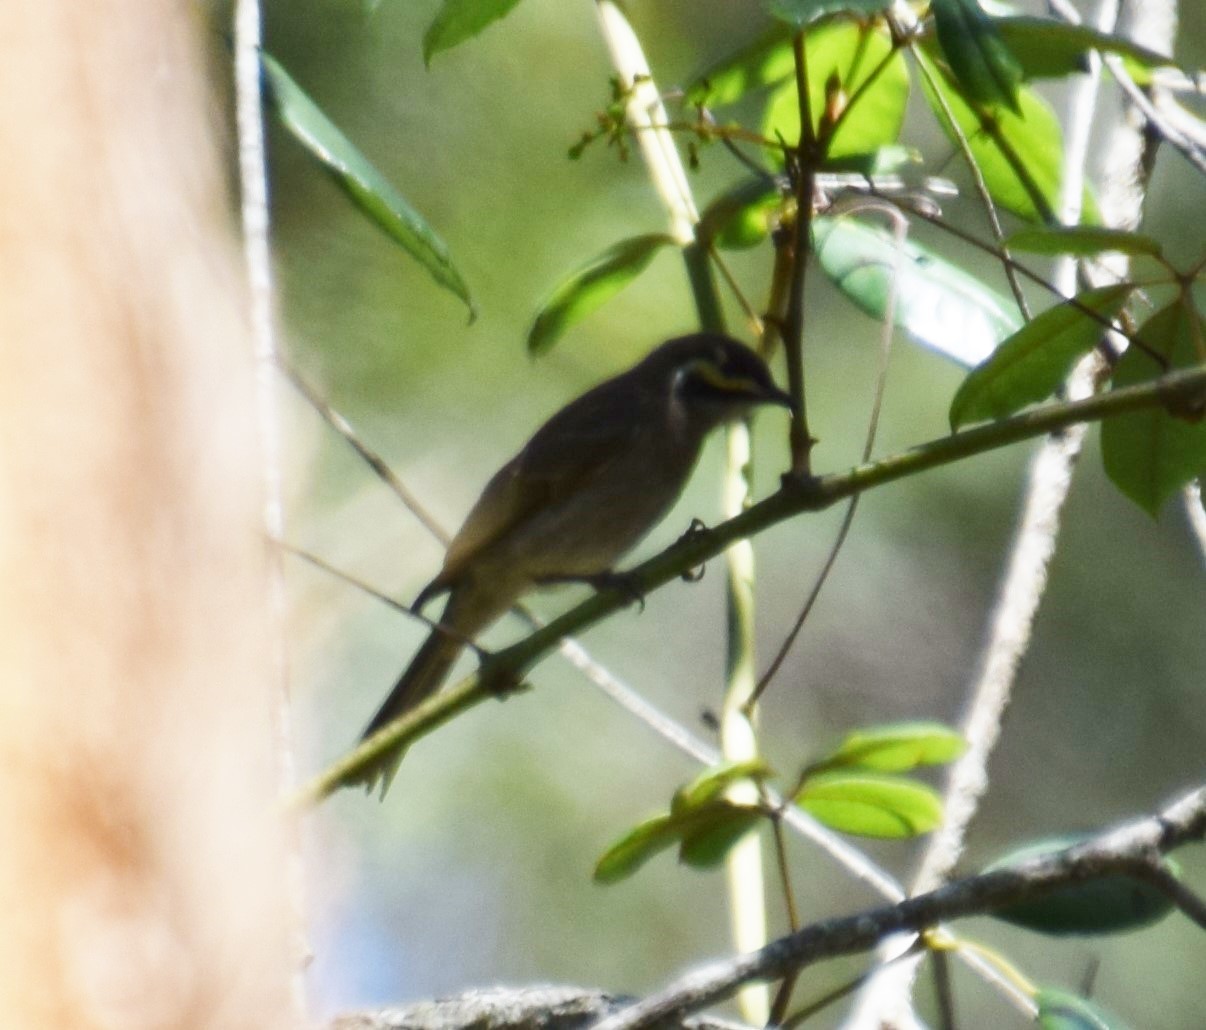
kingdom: Animalia
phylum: Chordata
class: Aves
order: Passeriformes
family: Meliphagidae
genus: Caligavis
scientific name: Caligavis chrysops
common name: Yellow-faced honeyeater
